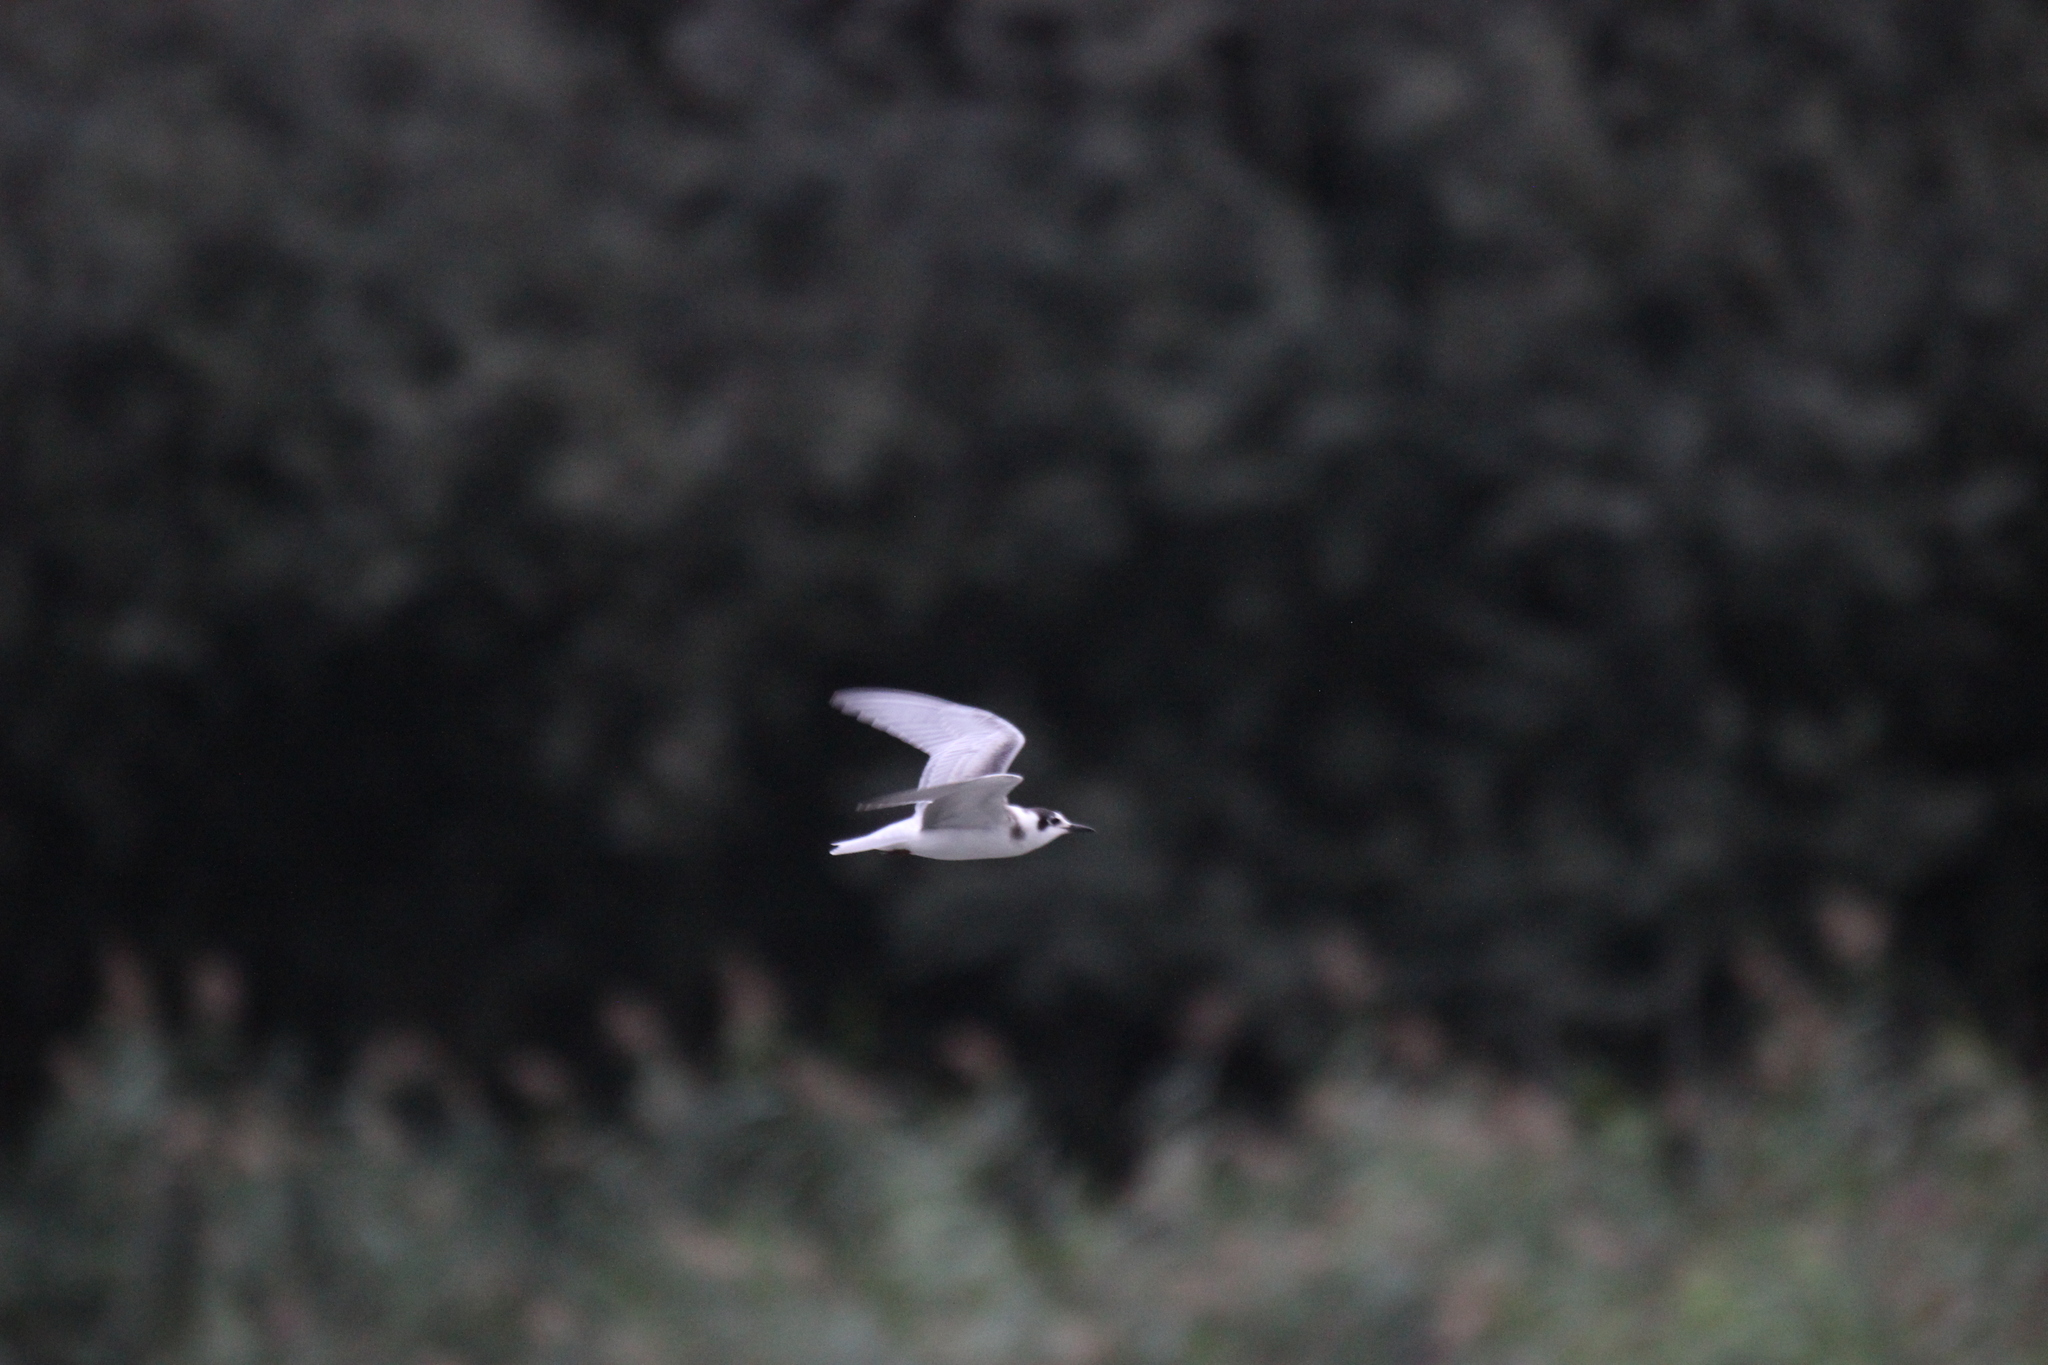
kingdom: Animalia
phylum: Chordata
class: Aves
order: Charadriiformes
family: Laridae
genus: Chlidonias
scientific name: Chlidonias niger
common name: Black tern
